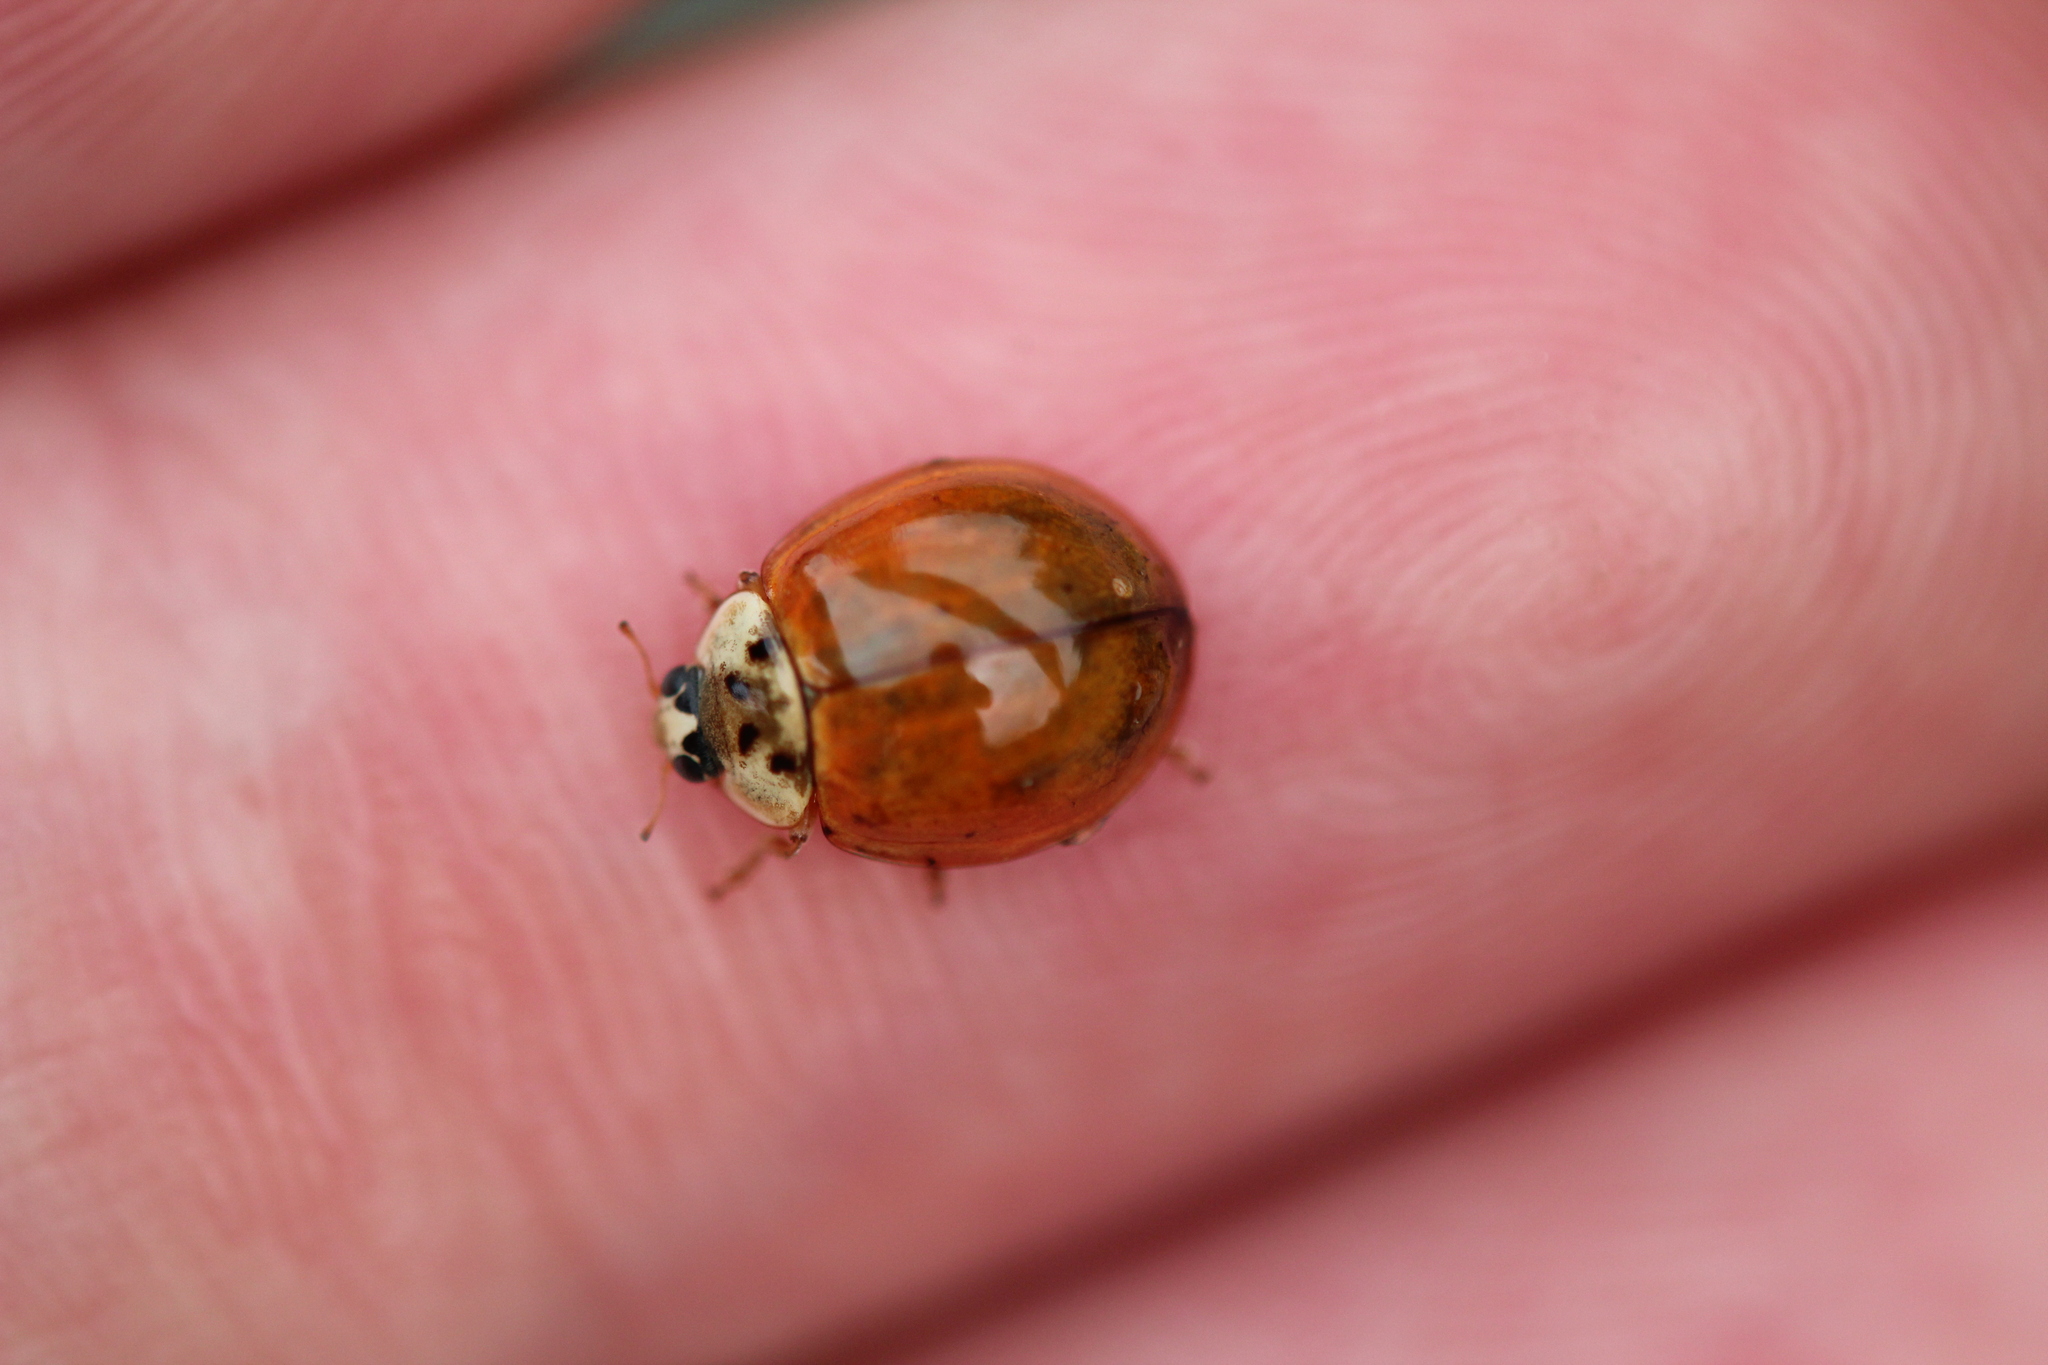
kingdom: Animalia
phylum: Arthropoda
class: Insecta
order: Coleoptera
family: Coccinellidae
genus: Harmonia
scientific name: Harmonia axyridis
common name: Harlequin ladybird
